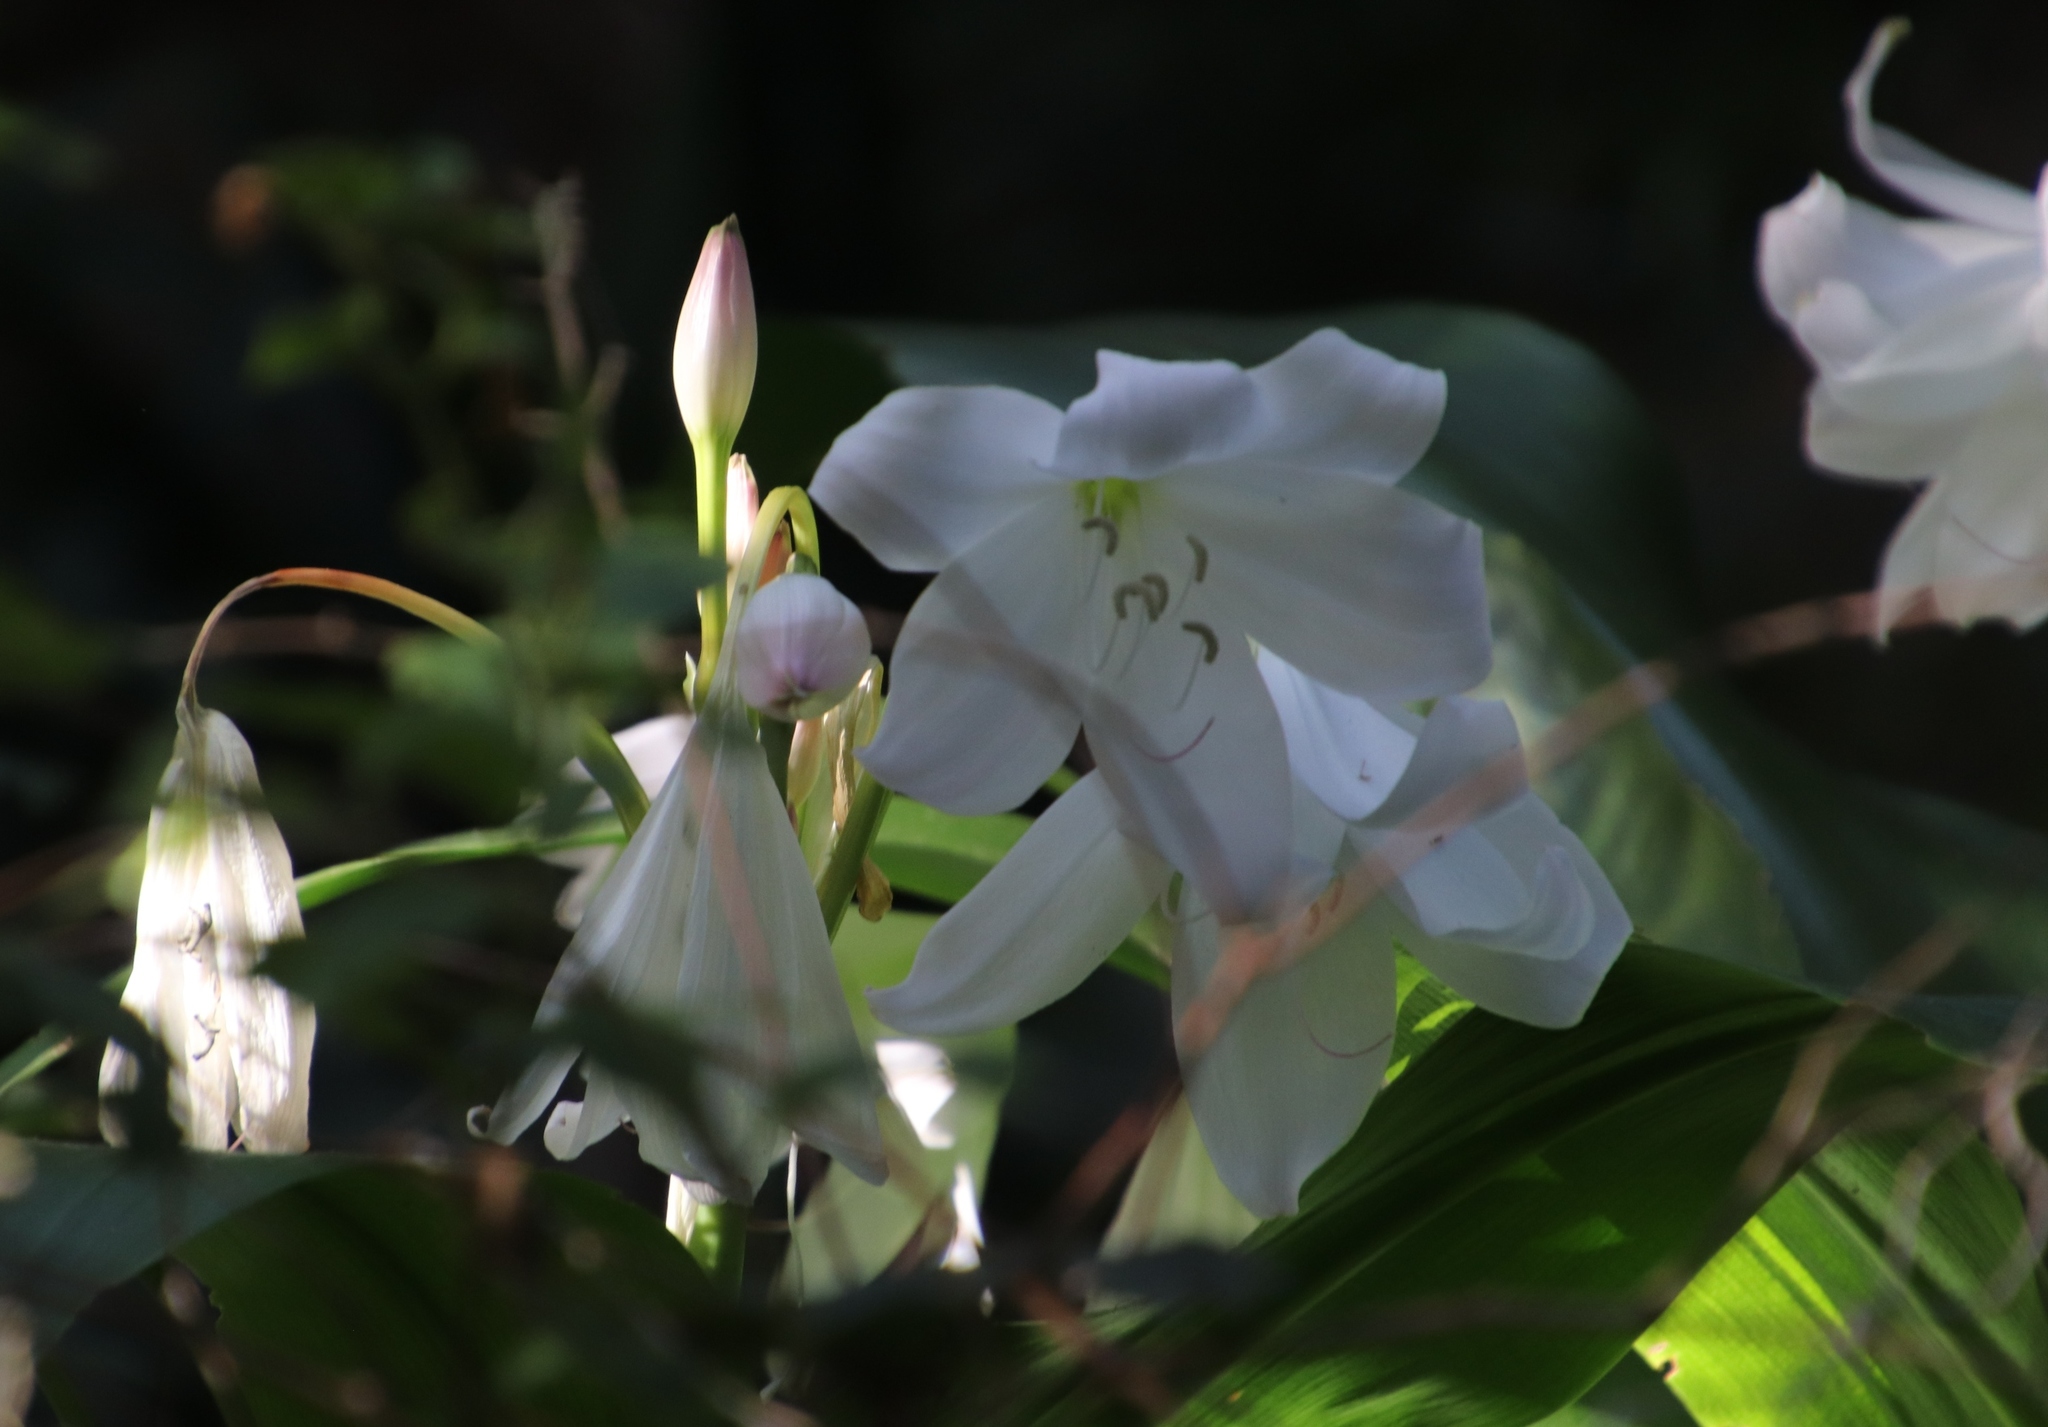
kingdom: Plantae
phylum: Tracheophyta
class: Liliopsida
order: Asparagales
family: Amaryllidaceae
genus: Crinum
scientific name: Crinum moorei
